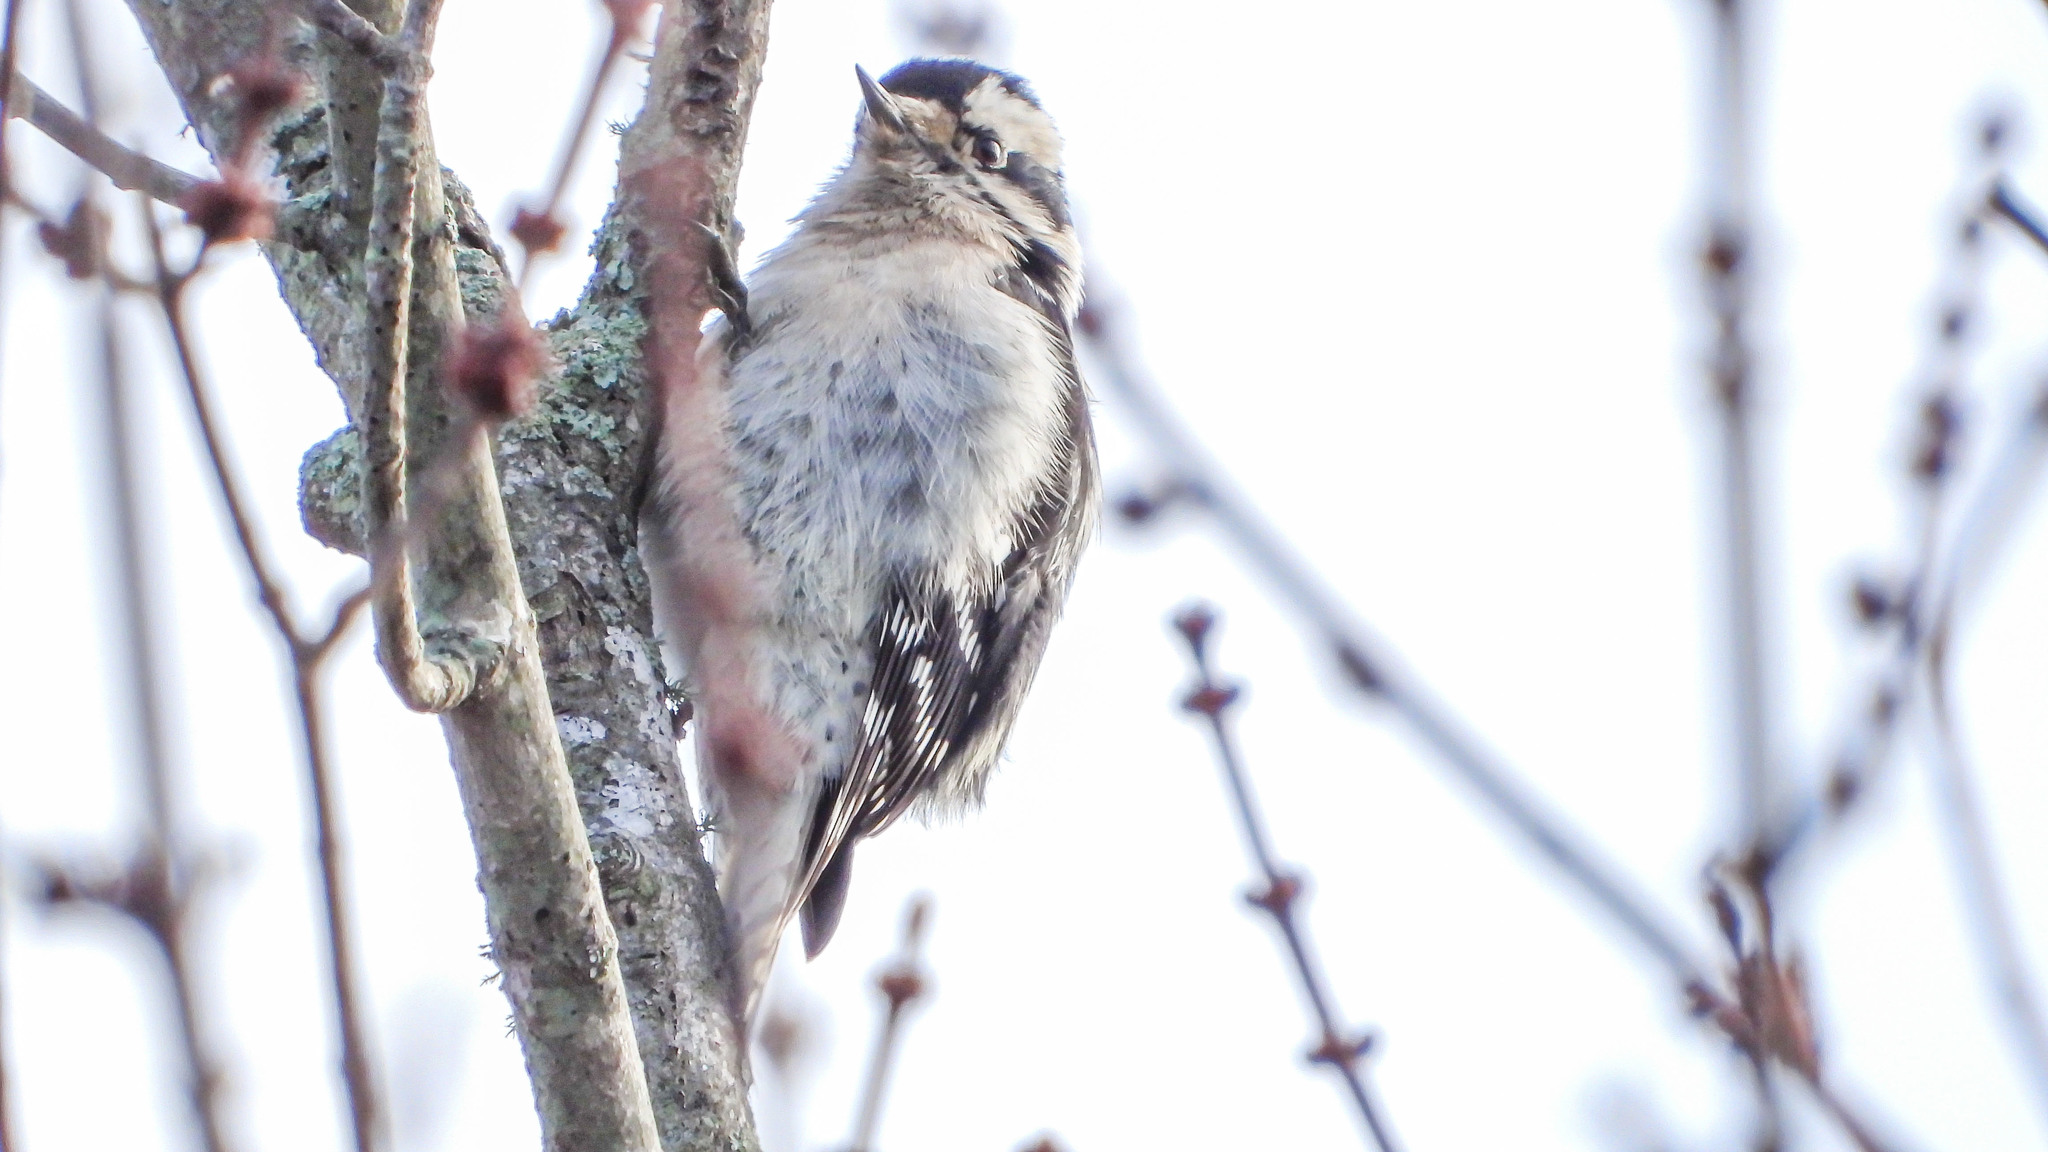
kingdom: Animalia
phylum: Chordata
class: Aves
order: Piciformes
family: Picidae
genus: Dryobates
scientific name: Dryobates pubescens
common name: Downy woodpecker
